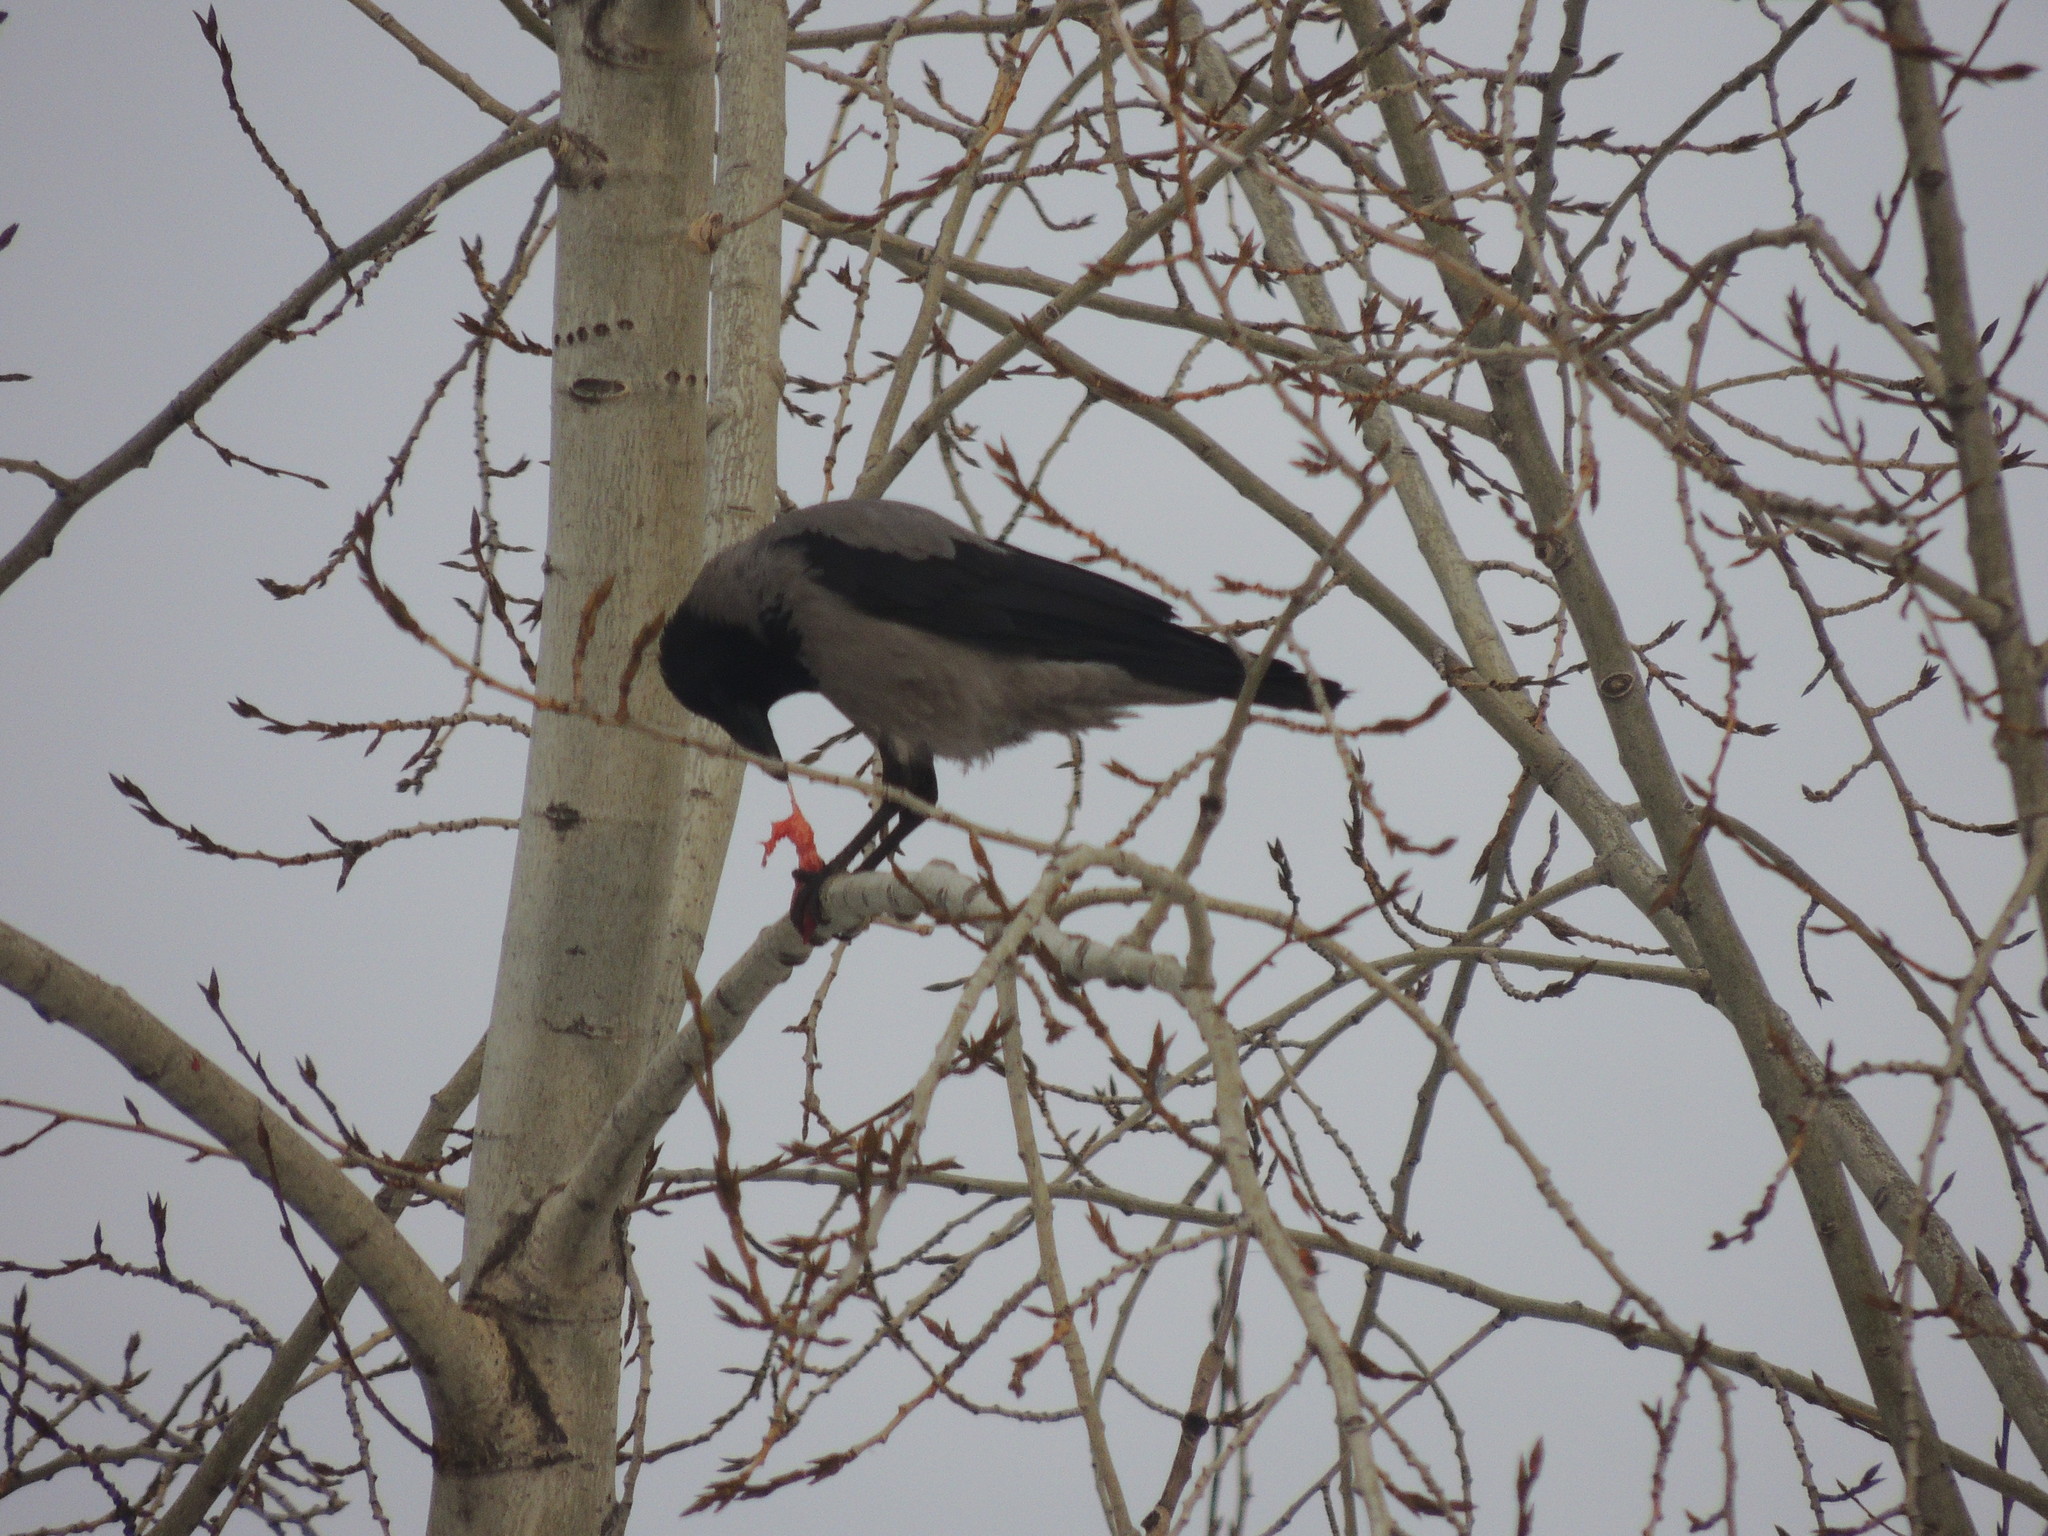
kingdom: Animalia
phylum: Chordata
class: Aves
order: Passeriformes
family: Corvidae
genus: Corvus
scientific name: Corvus cornix
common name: Hooded crow
